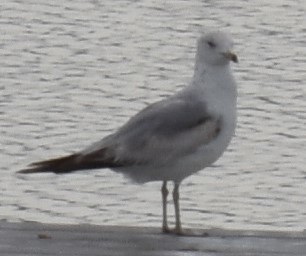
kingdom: Animalia
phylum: Chordata
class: Aves
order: Charadriiformes
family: Laridae
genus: Larus
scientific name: Larus delawarensis
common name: Ring-billed gull
